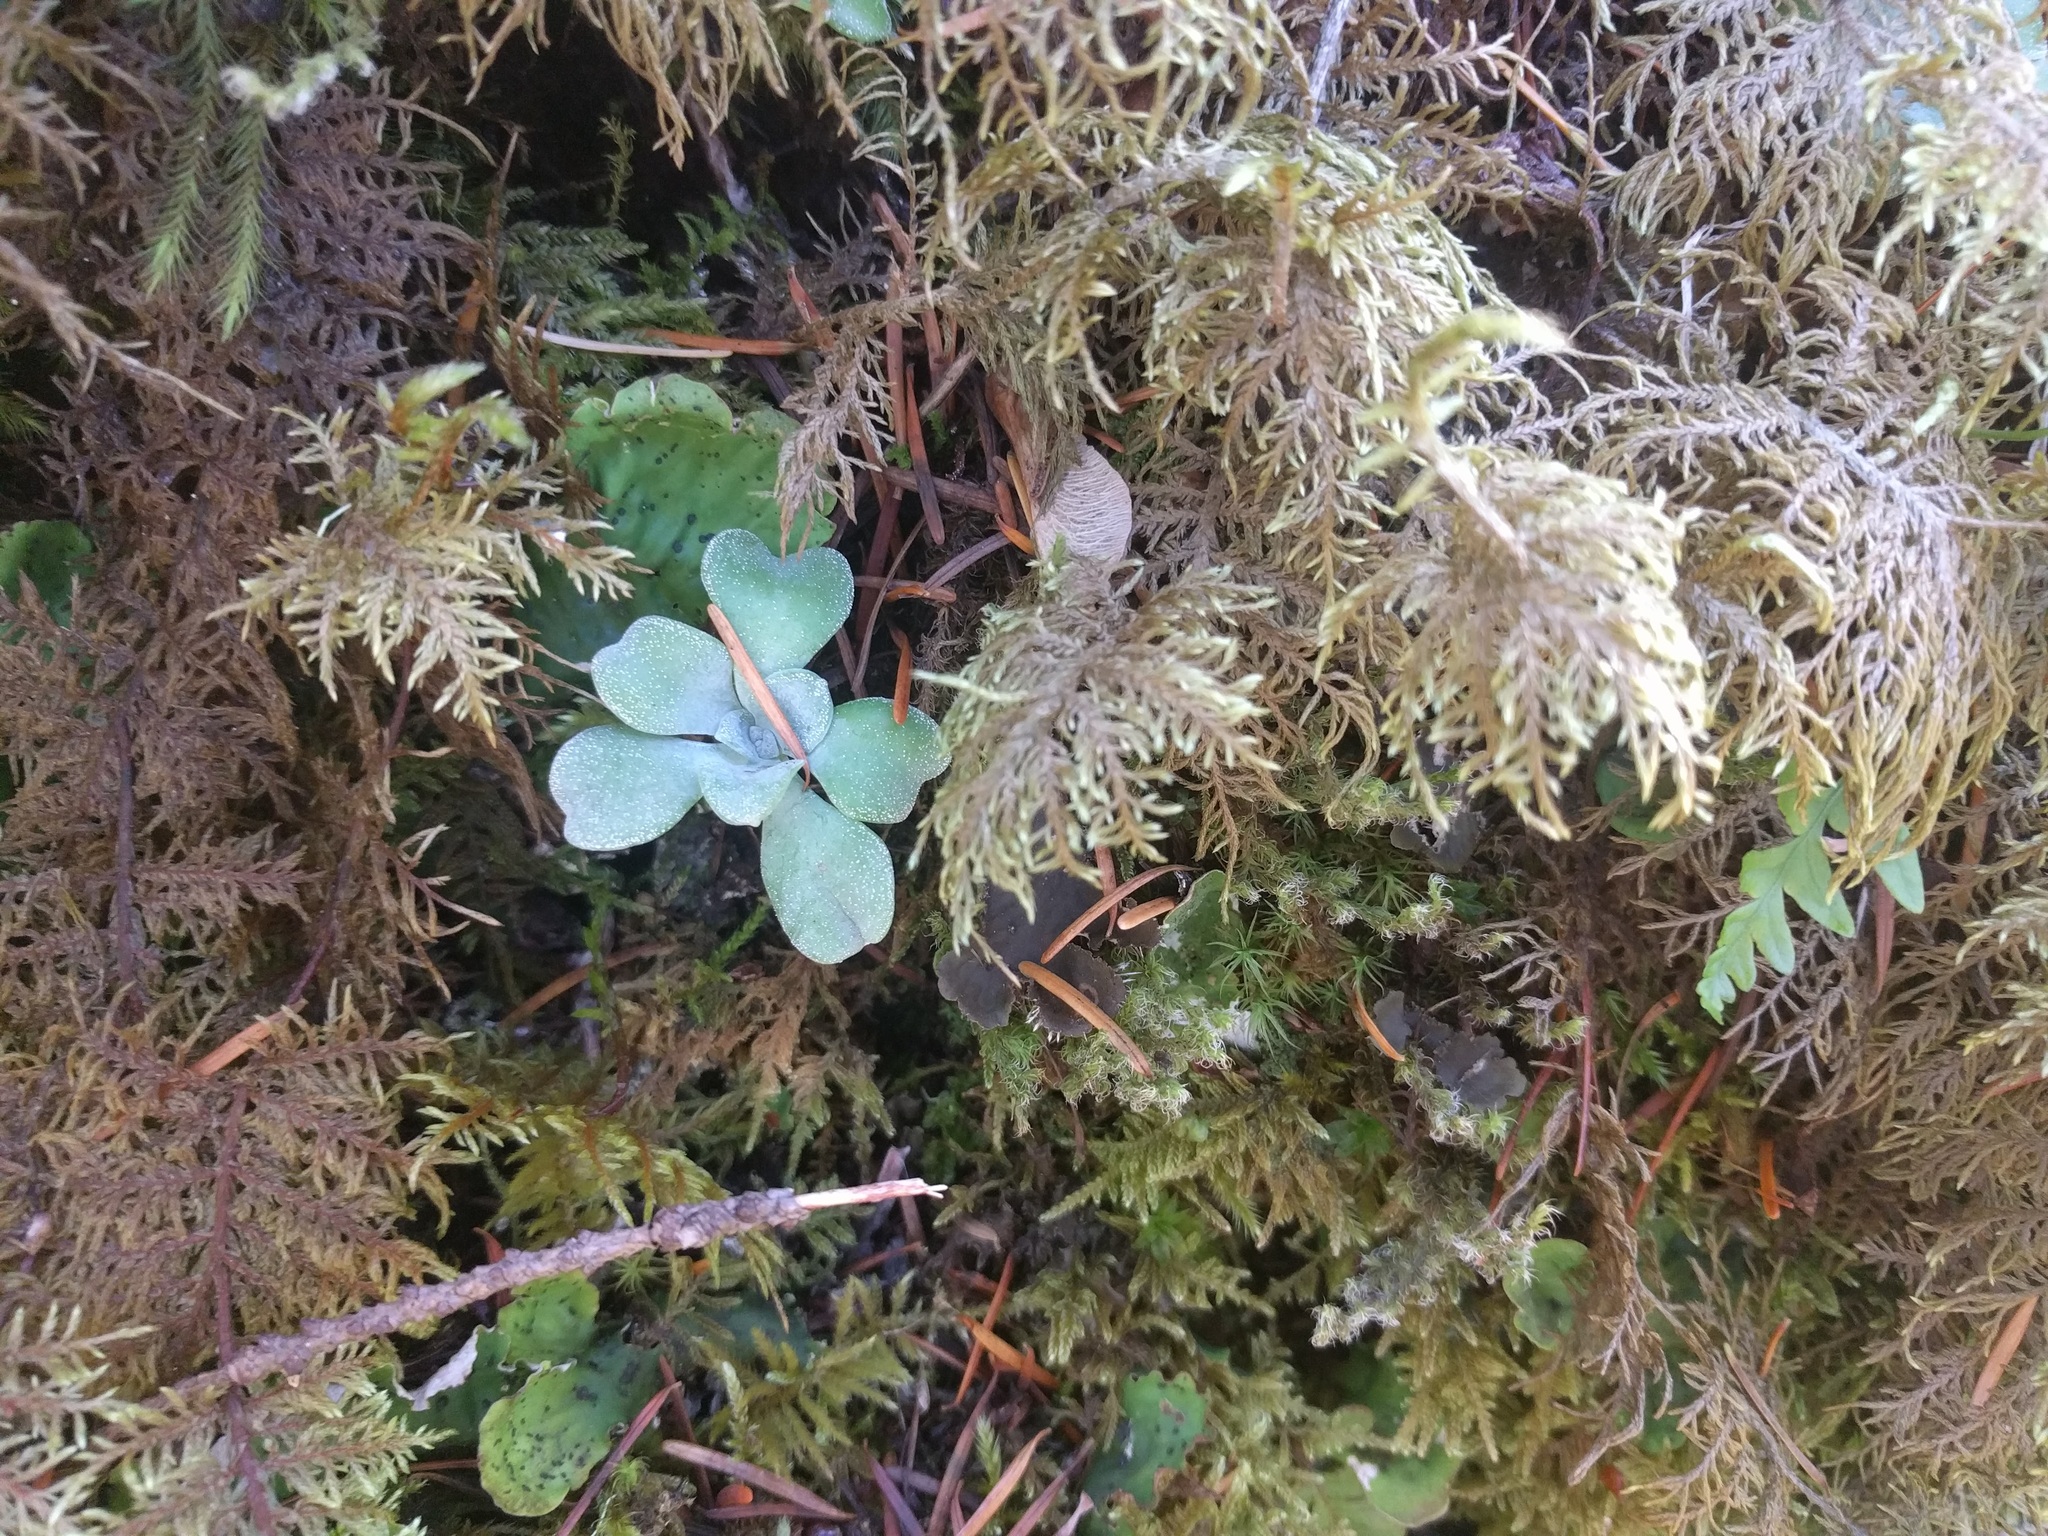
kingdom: Plantae
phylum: Bryophyta
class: Bryopsida
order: Hypnales
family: Hylocomiaceae
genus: Hylocomium
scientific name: Hylocomium splendens
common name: Stairstep moss
